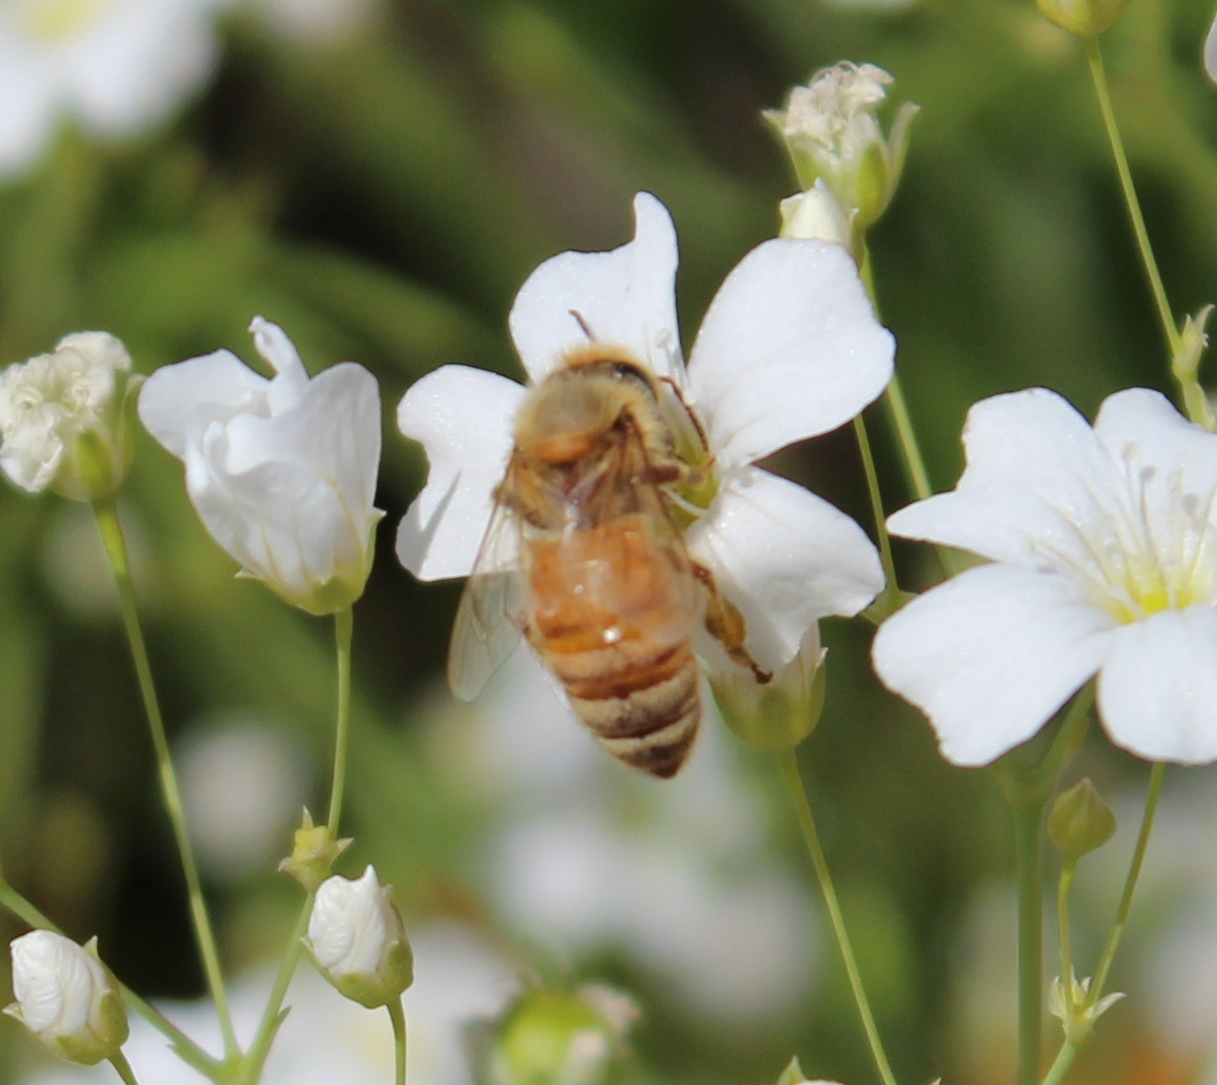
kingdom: Animalia
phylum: Arthropoda
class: Insecta
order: Hymenoptera
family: Apidae
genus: Apis
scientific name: Apis mellifera
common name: Honey bee
